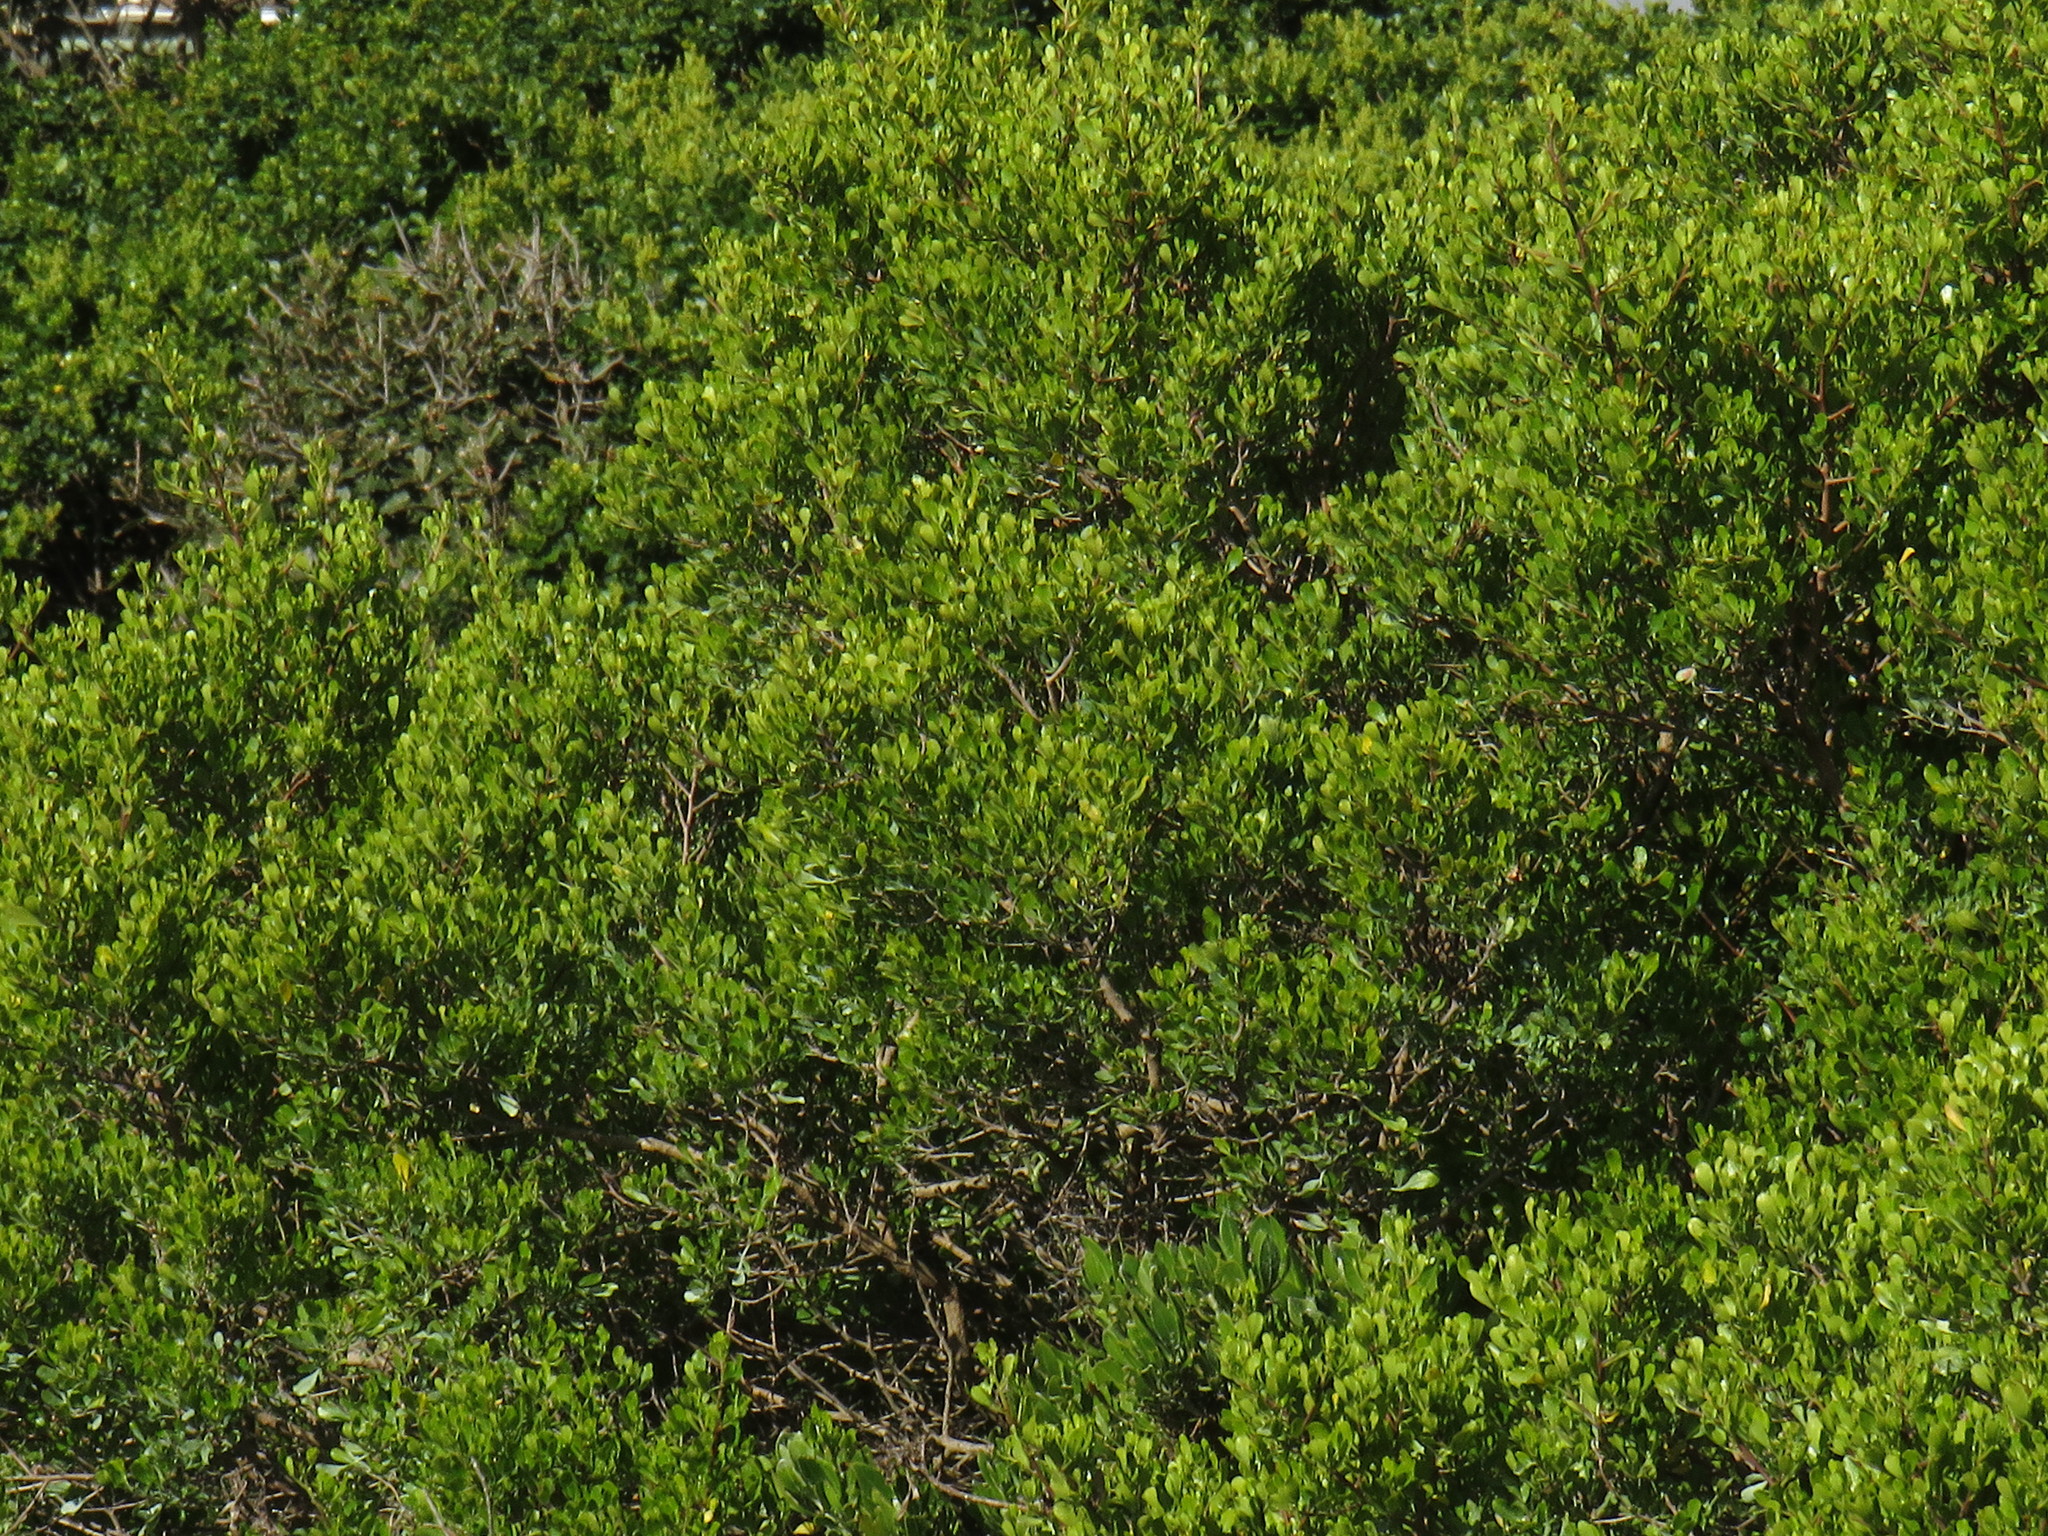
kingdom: Plantae
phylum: Tracheophyta
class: Magnoliopsida
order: Sapindales
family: Anacardiaceae
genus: Searsia
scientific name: Searsia lucida
